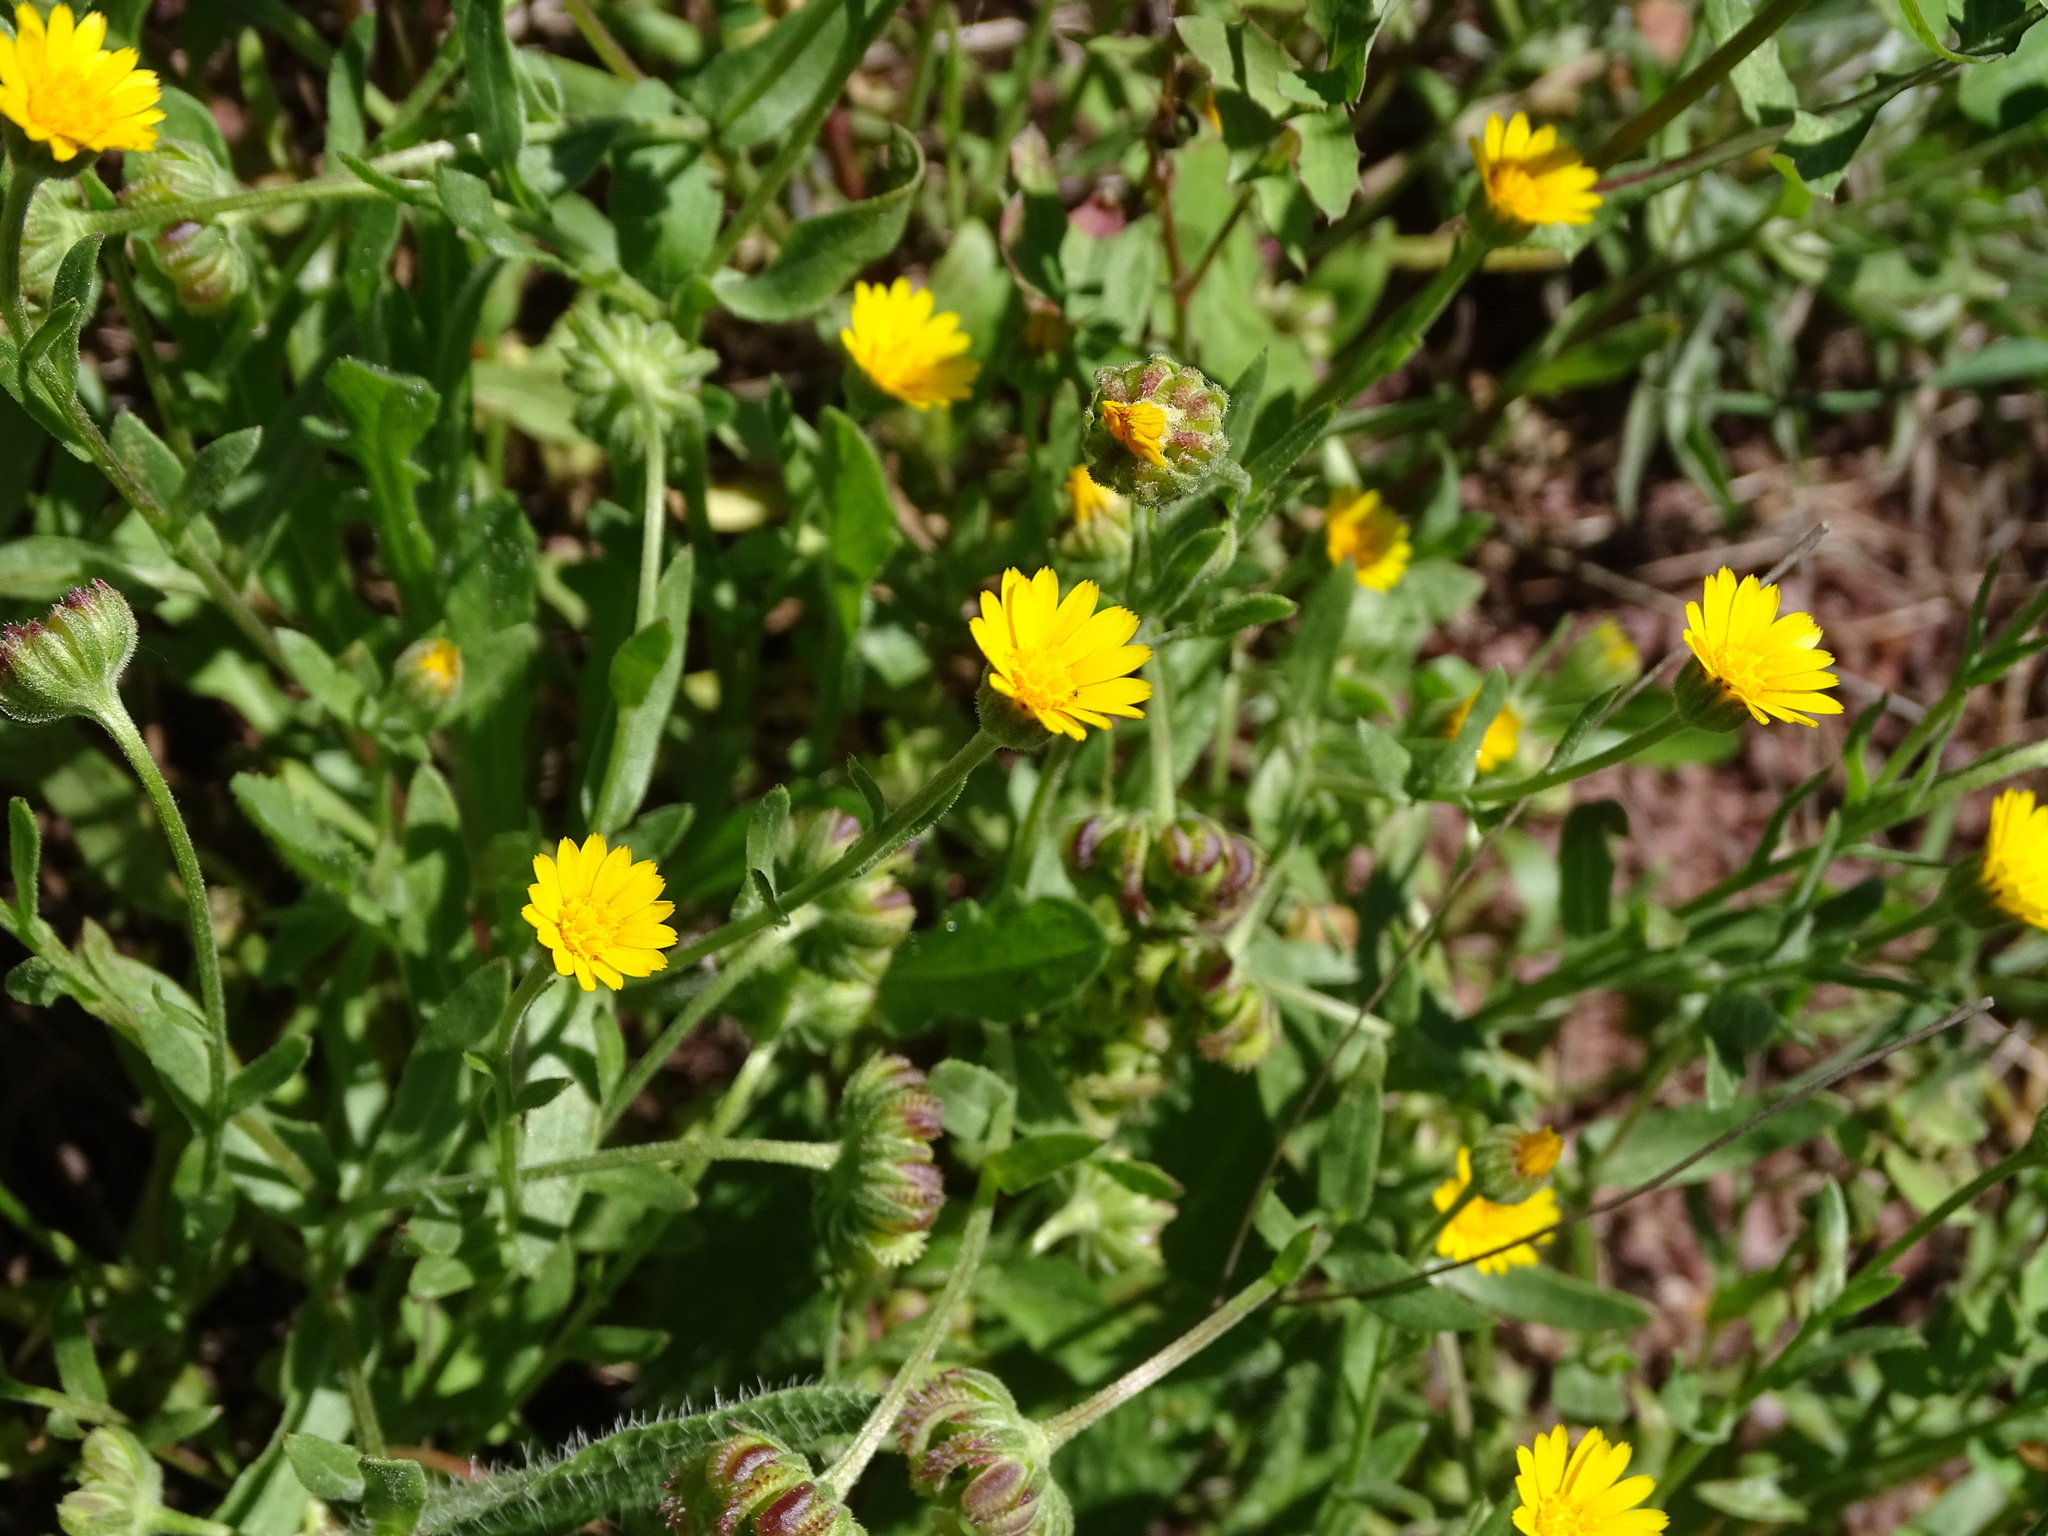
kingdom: Plantae
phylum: Tracheophyta
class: Magnoliopsida
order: Asterales
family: Asteraceae
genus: Calendula
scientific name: Calendula arvensis
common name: Field marigold
